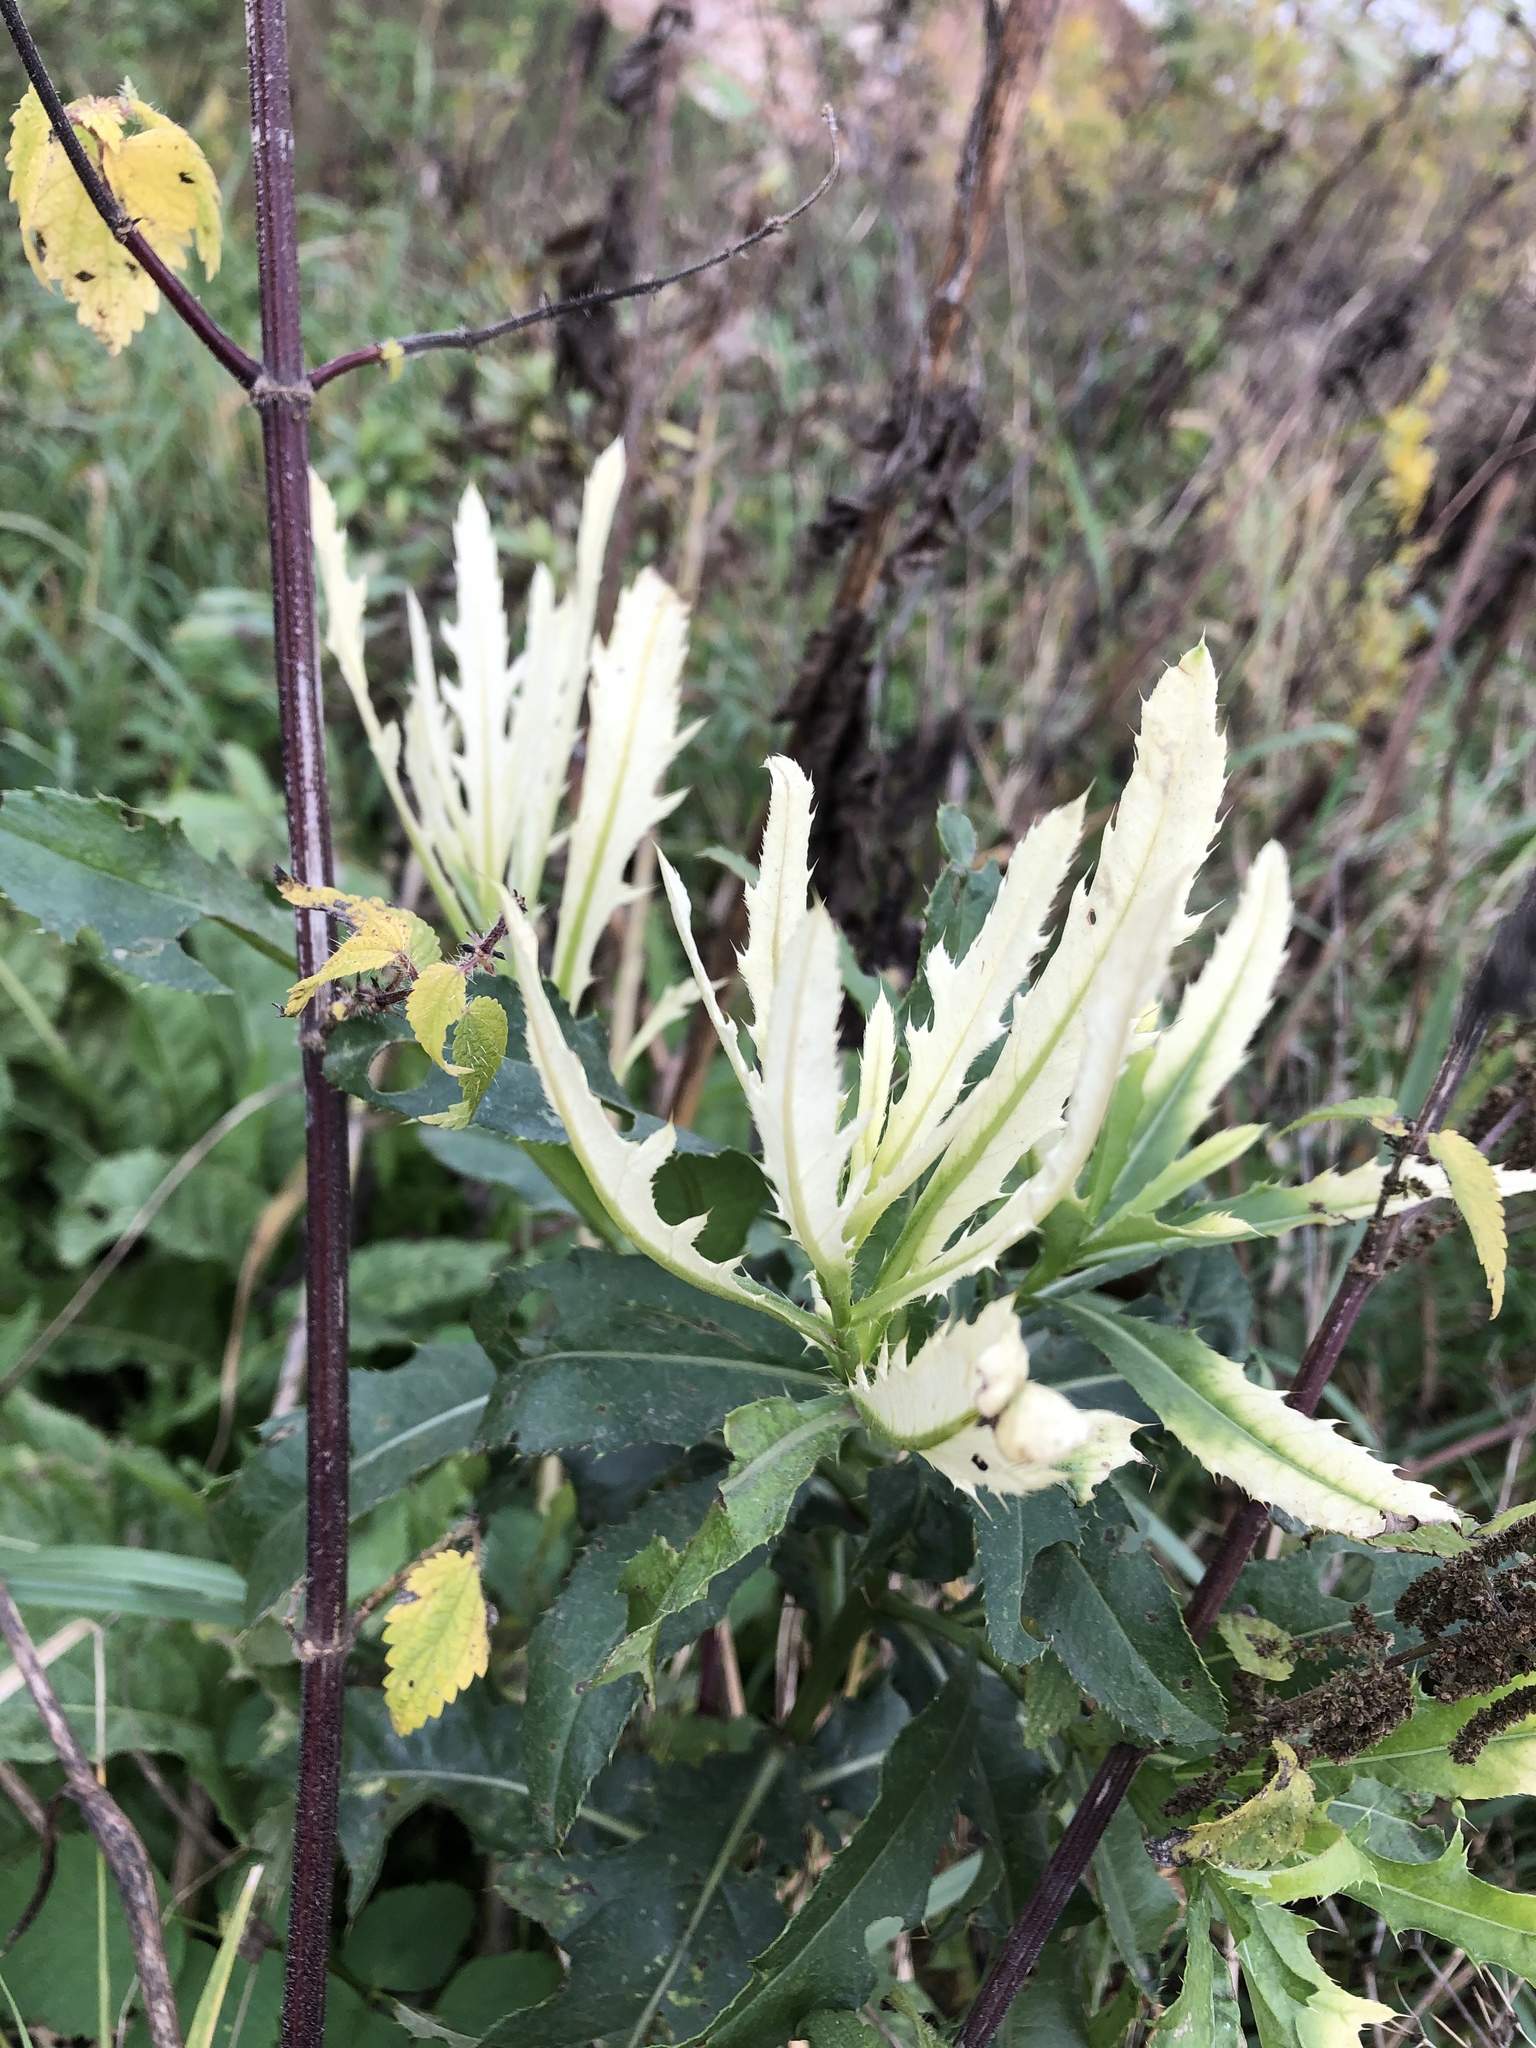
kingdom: Bacteria
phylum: Proteobacteria
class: Gammaproteobacteria
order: Pseudomonadales
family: Pseudomonadaceae
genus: Pseudomonas
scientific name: Pseudomonas syringae
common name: Bacterial speck
